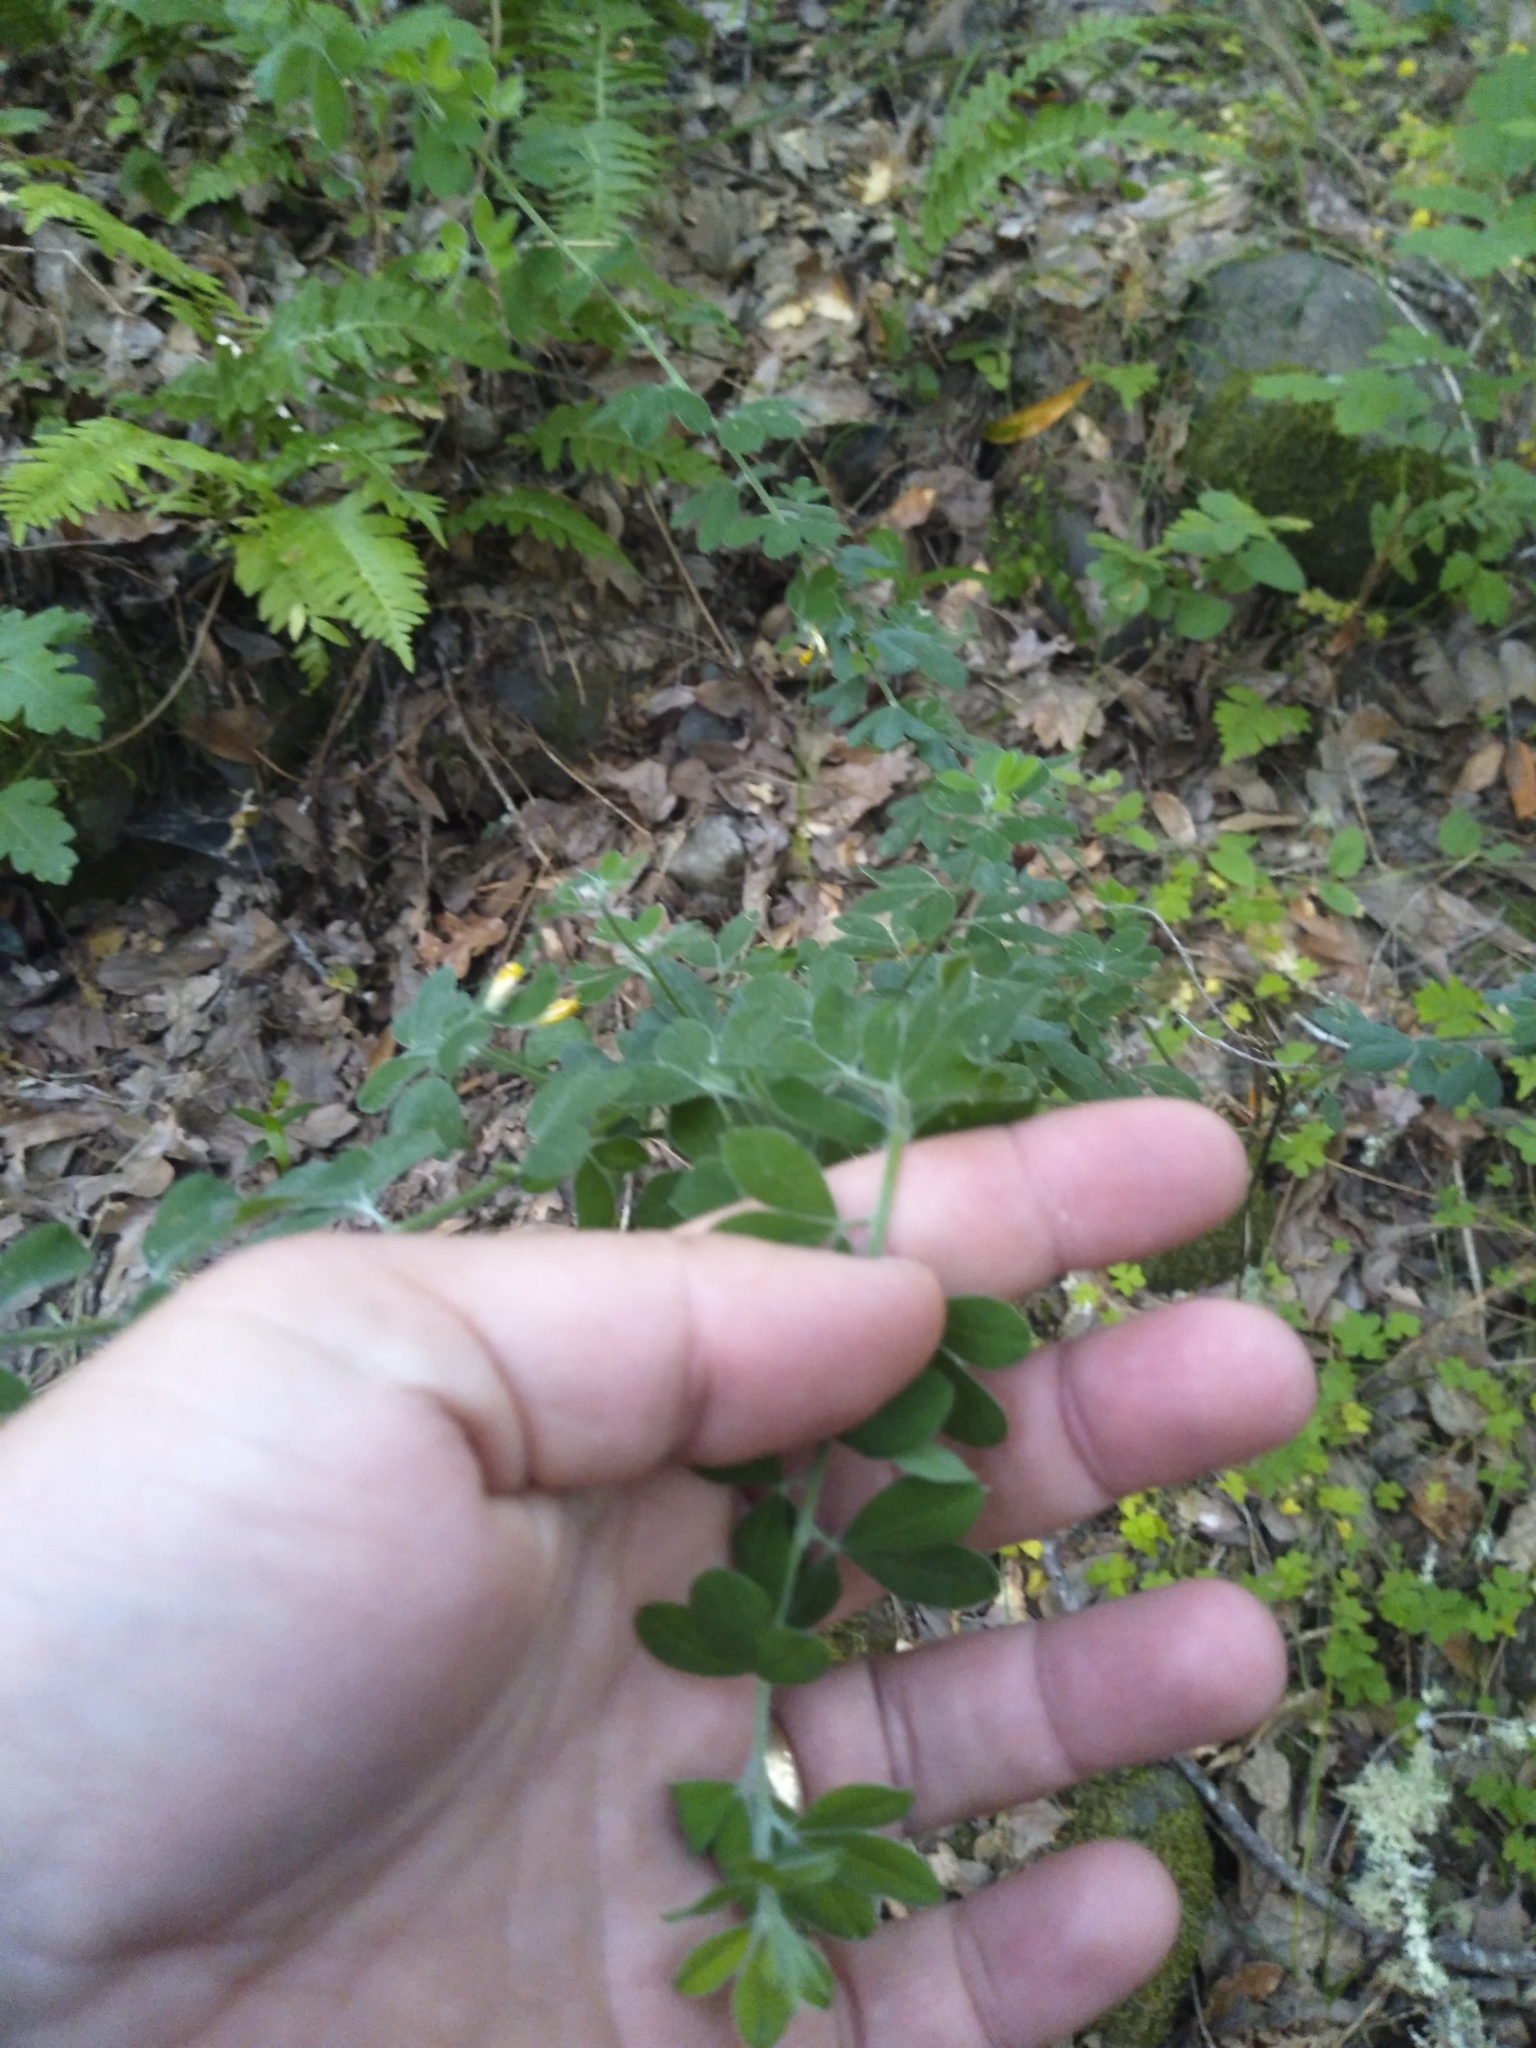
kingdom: Plantae
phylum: Tracheophyta
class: Magnoliopsida
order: Fabales
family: Fabaceae
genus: Genista
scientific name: Genista monspessulana
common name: Montpellier broom
